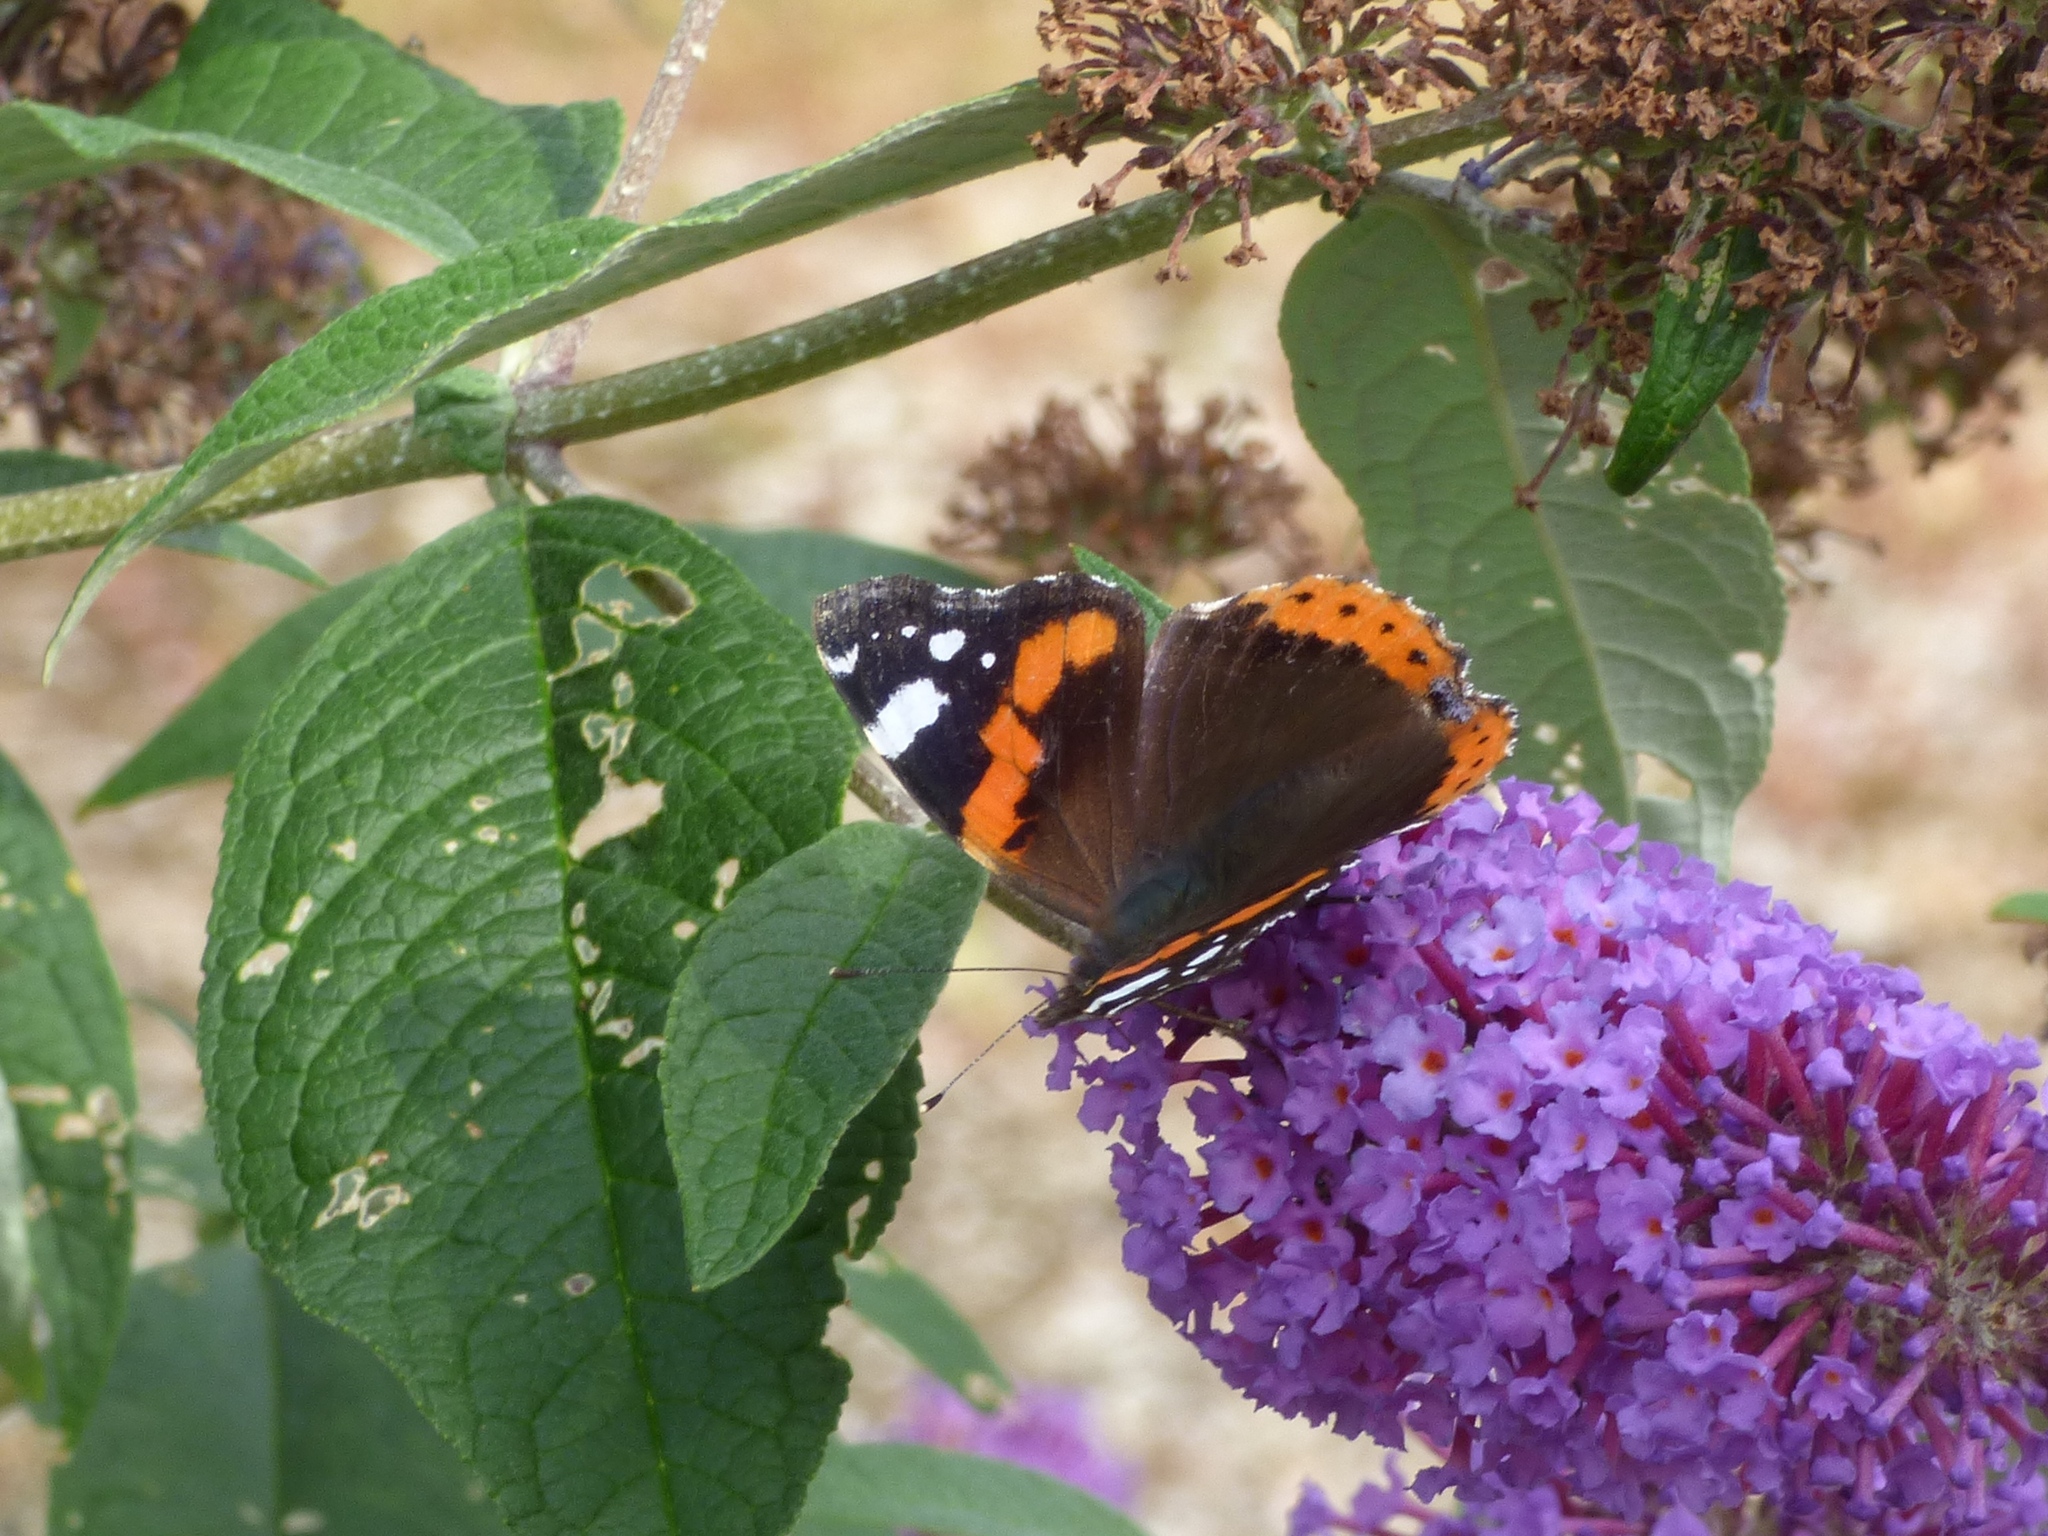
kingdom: Animalia
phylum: Arthropoda
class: Insecta
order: Lepidoptera
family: Nymphalidae
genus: Vanessa
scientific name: Vanessa atalanta
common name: Red admiral
